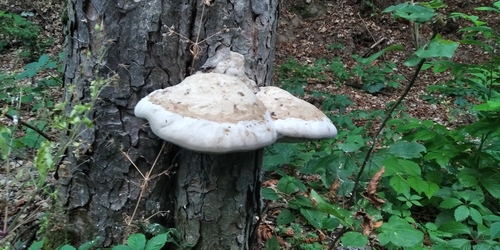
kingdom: Fungi
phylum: Basidiomycota
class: Agaricomycetes
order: Polyporales
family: Polyporaceae
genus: Fomes
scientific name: Fomes fomentarius
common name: Hoof fungus
